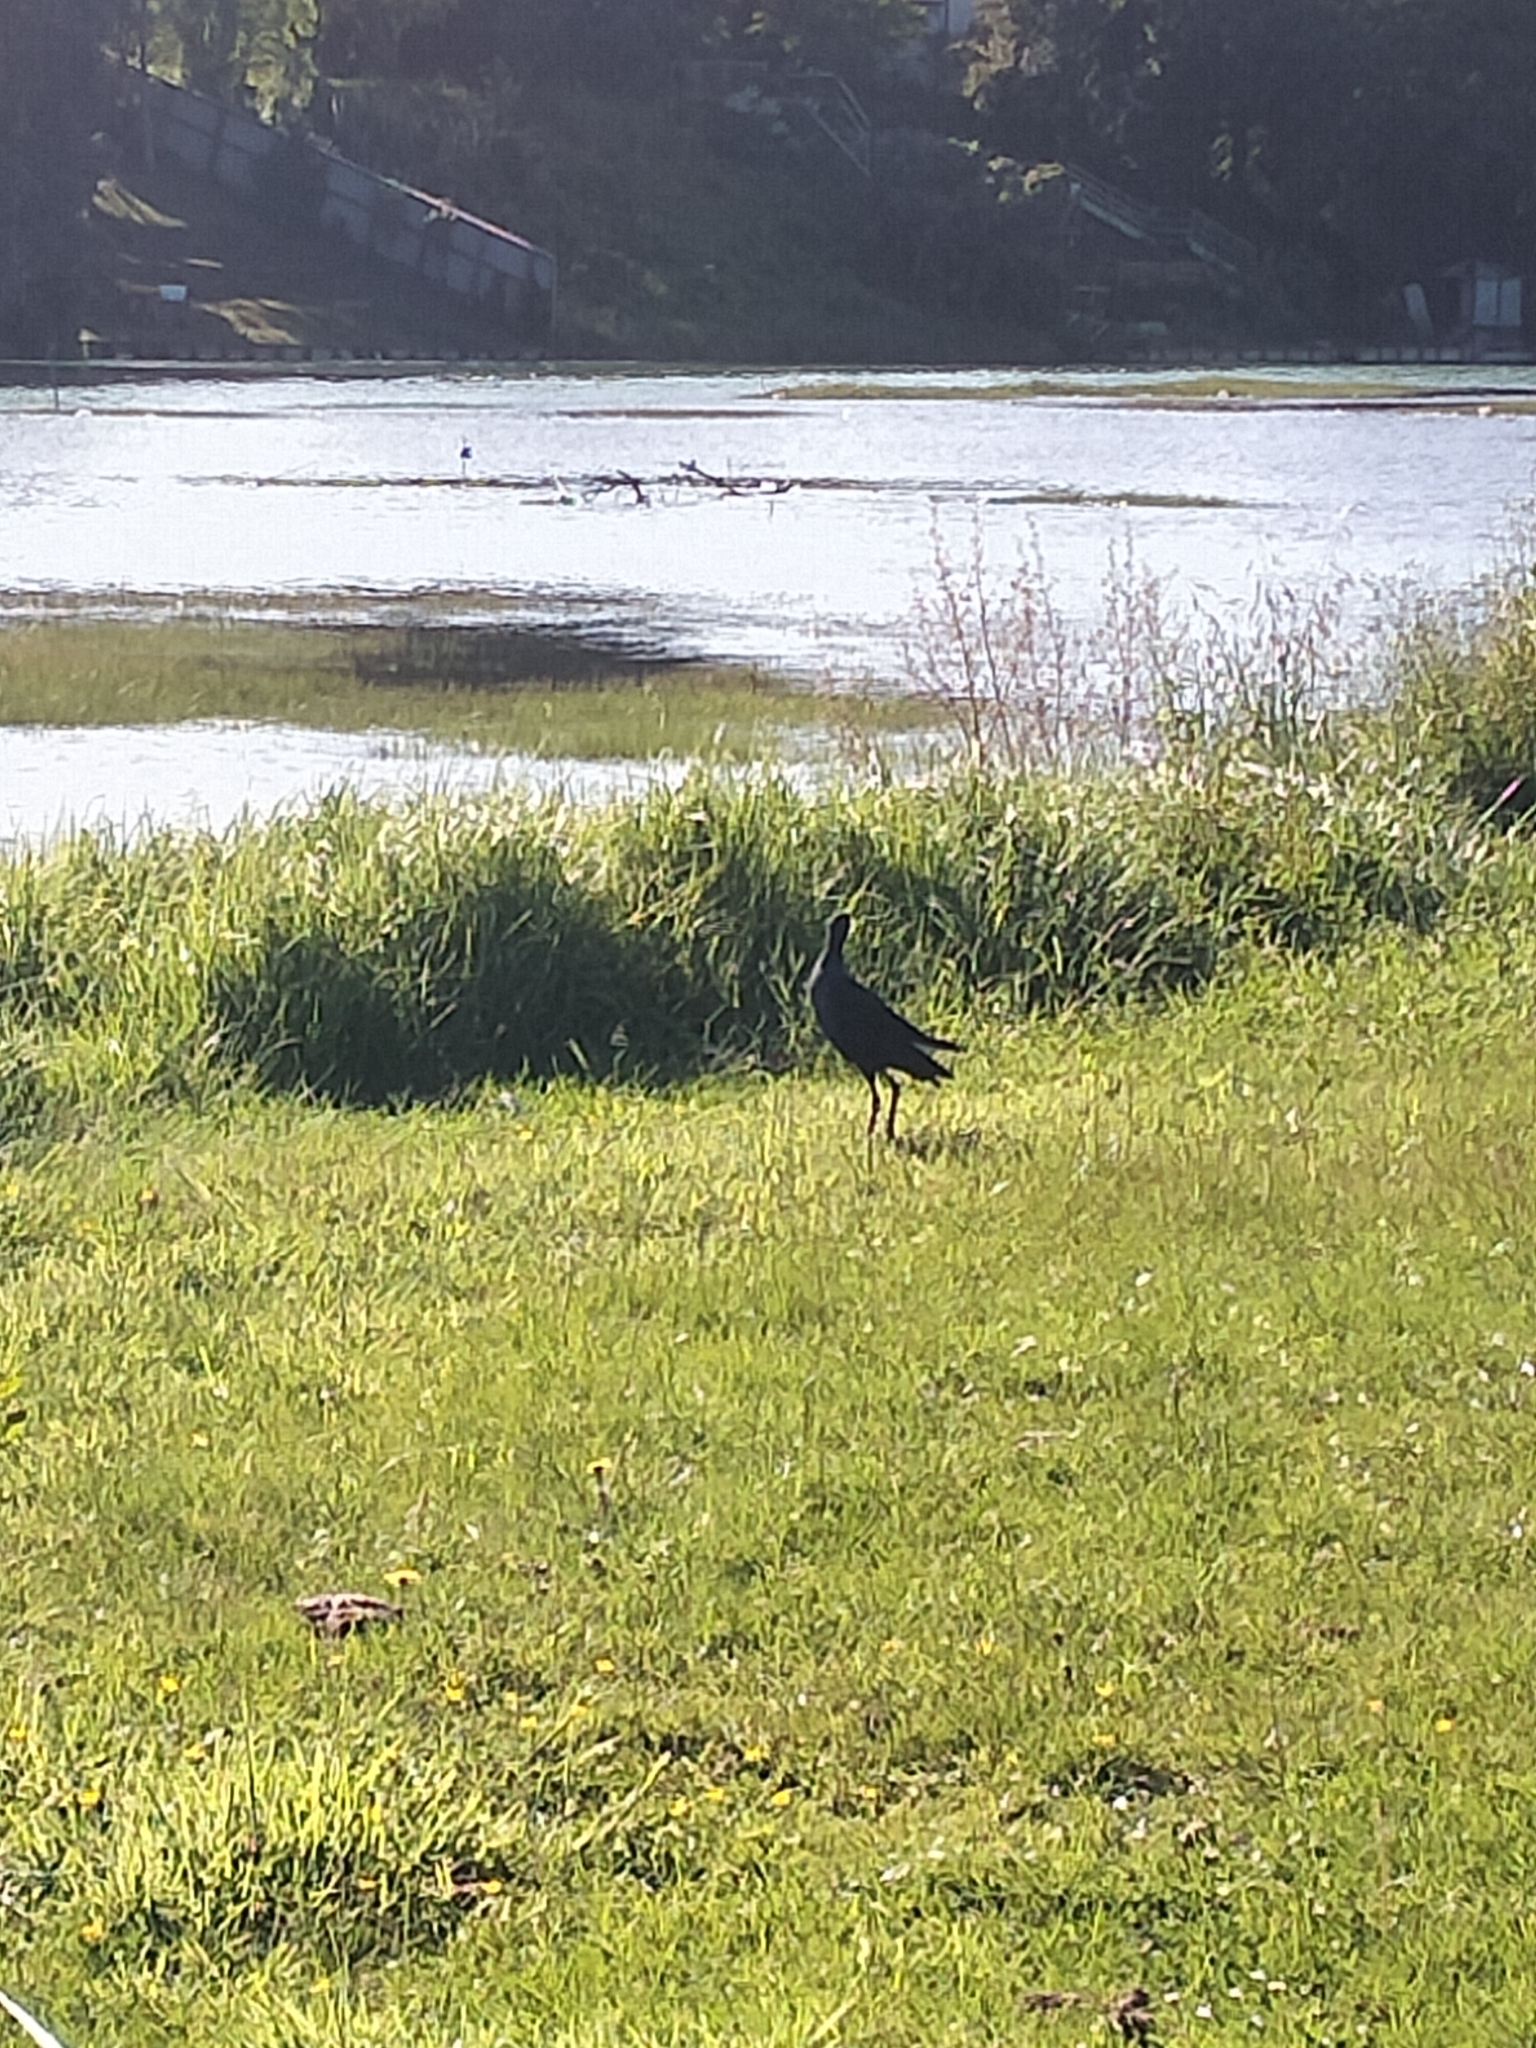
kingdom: Animalia
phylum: Chordata
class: Aves
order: Gruiformes
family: Rallidae
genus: Porphyrio
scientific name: Porphyrio melanotus
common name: Australasian swamphen
